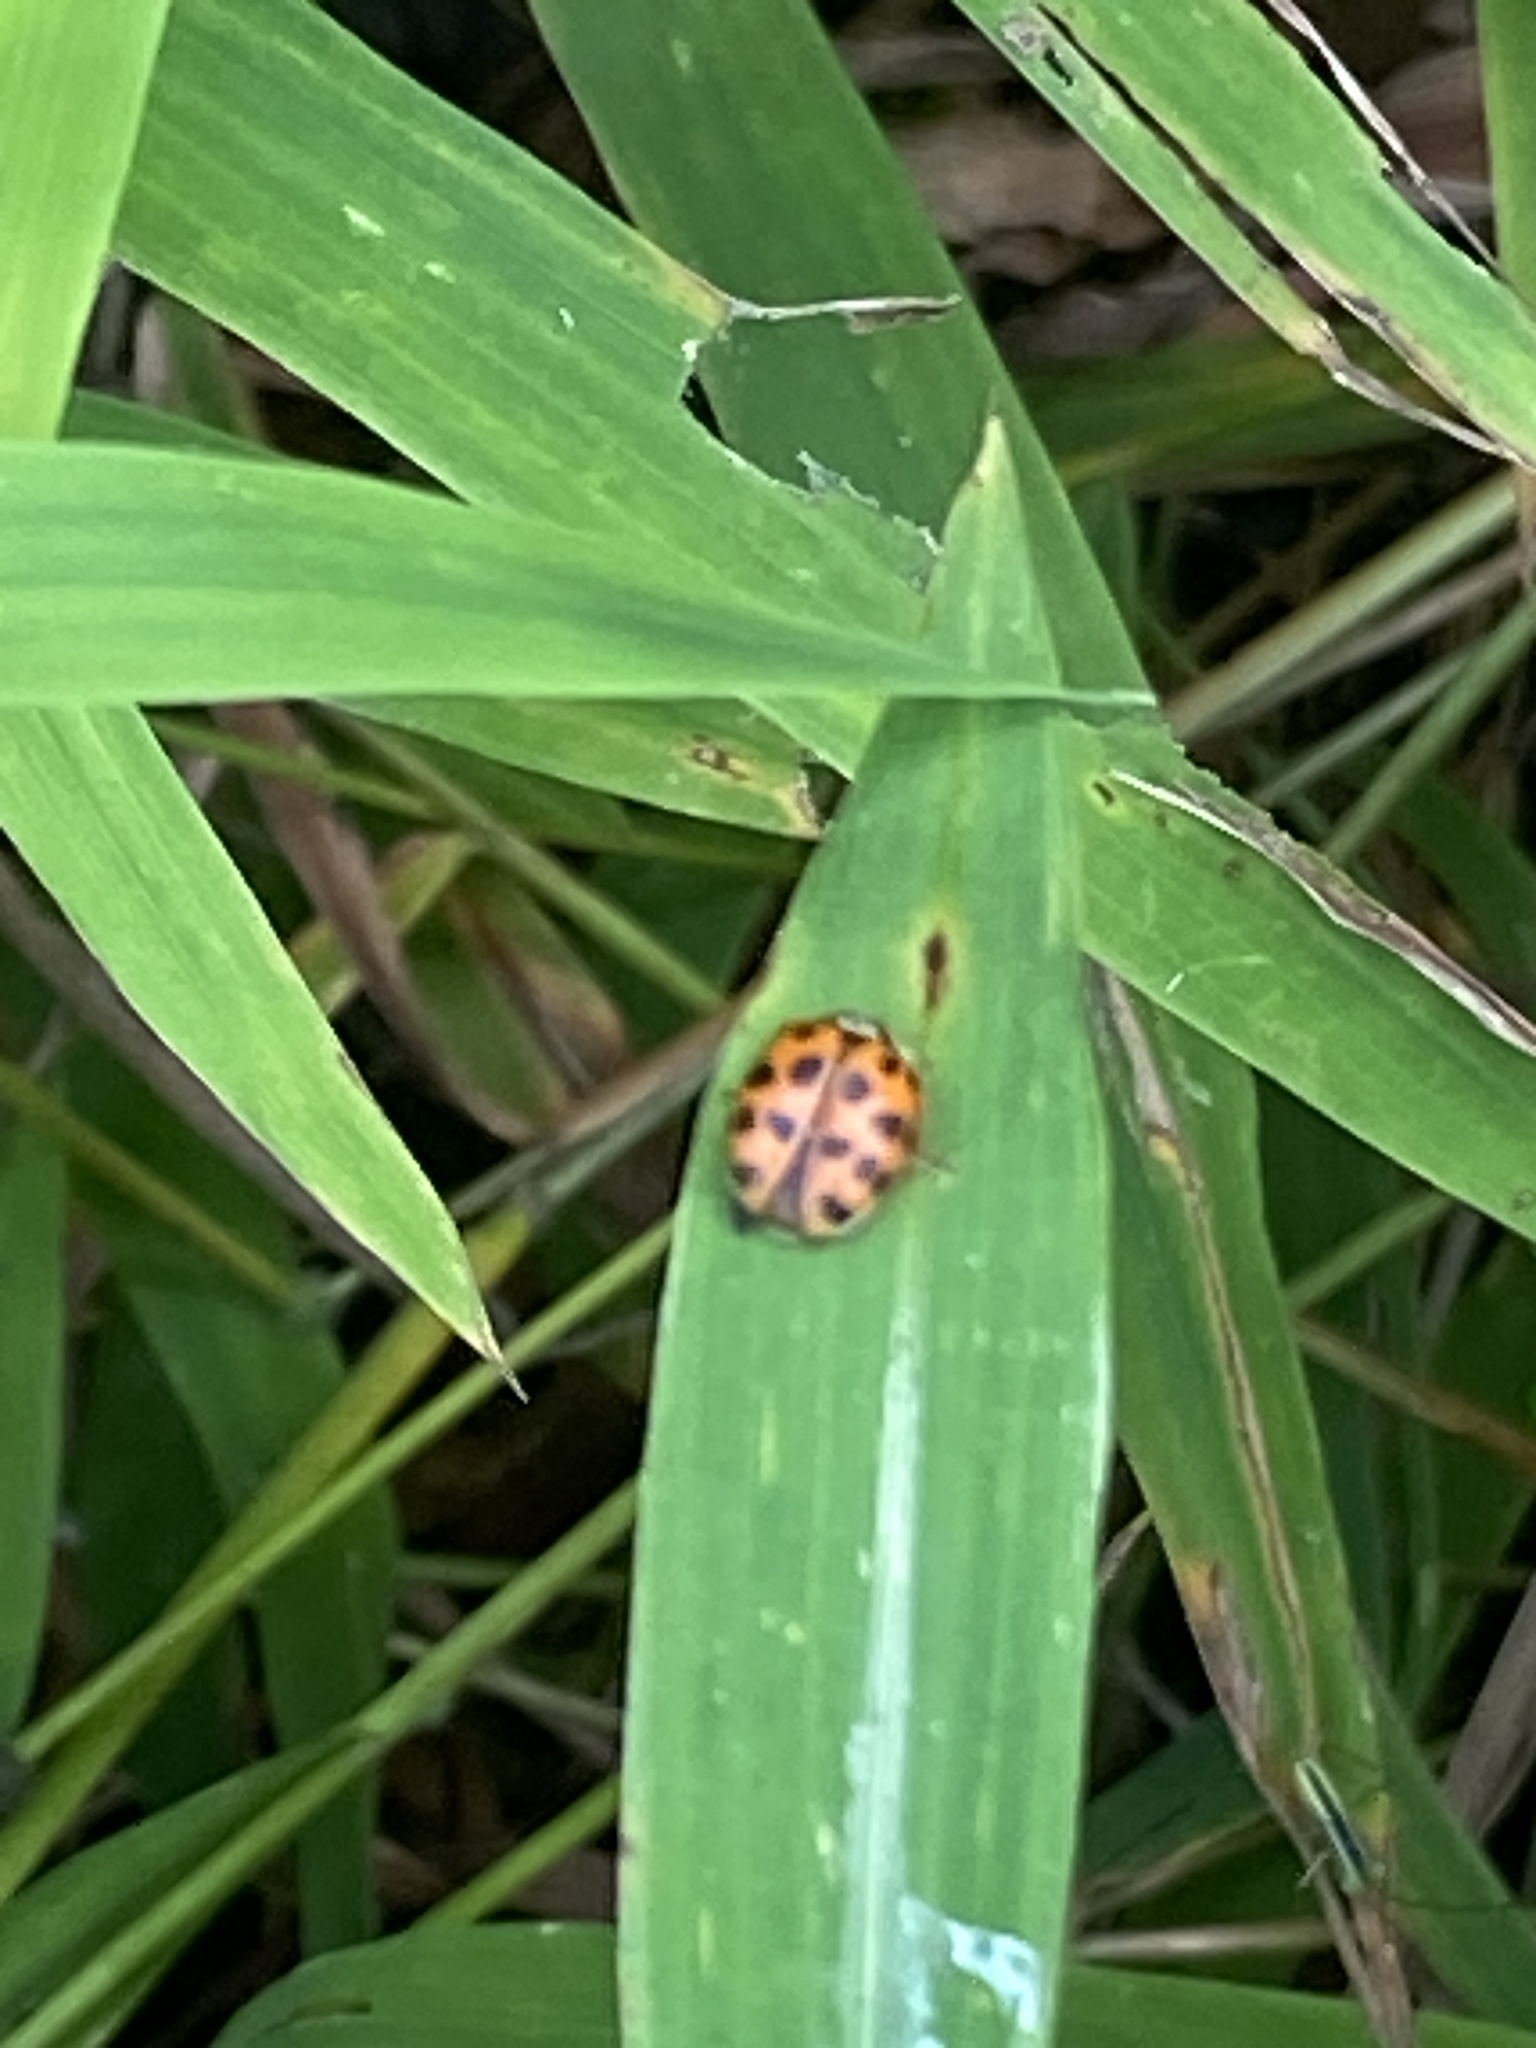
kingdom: Animalia
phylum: Arthropoda
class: Insecta
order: Coleoptera
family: Coccinellidae
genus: Harmonia
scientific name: Harmonia axyridis
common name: Harlequin ladybird
